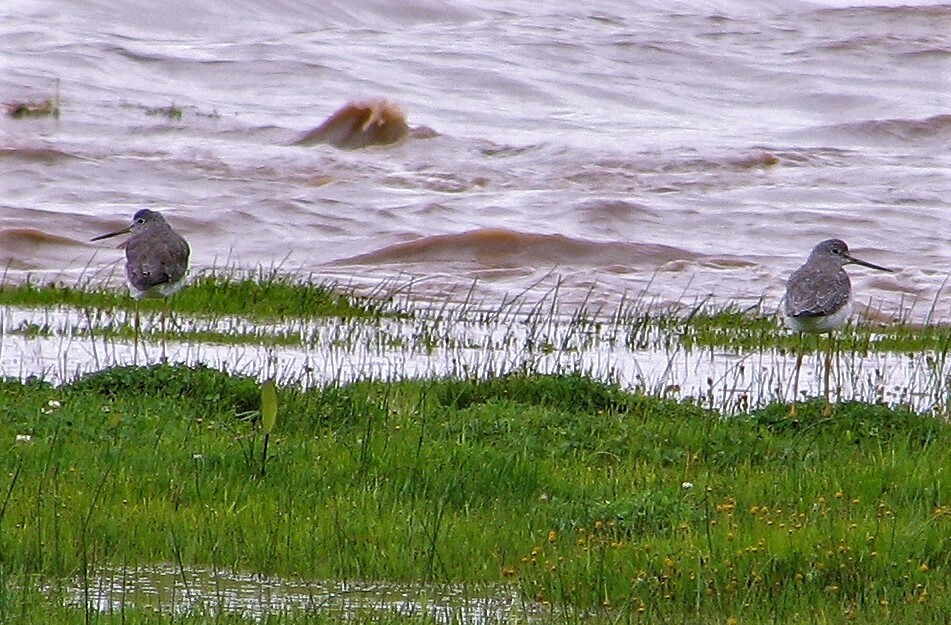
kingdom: Animalia
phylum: Chordata
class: Aves
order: Charadriiformes
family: Scolopacidae
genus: Tringa
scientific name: Tringa melanoleuca
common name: Greater yellowlegs
